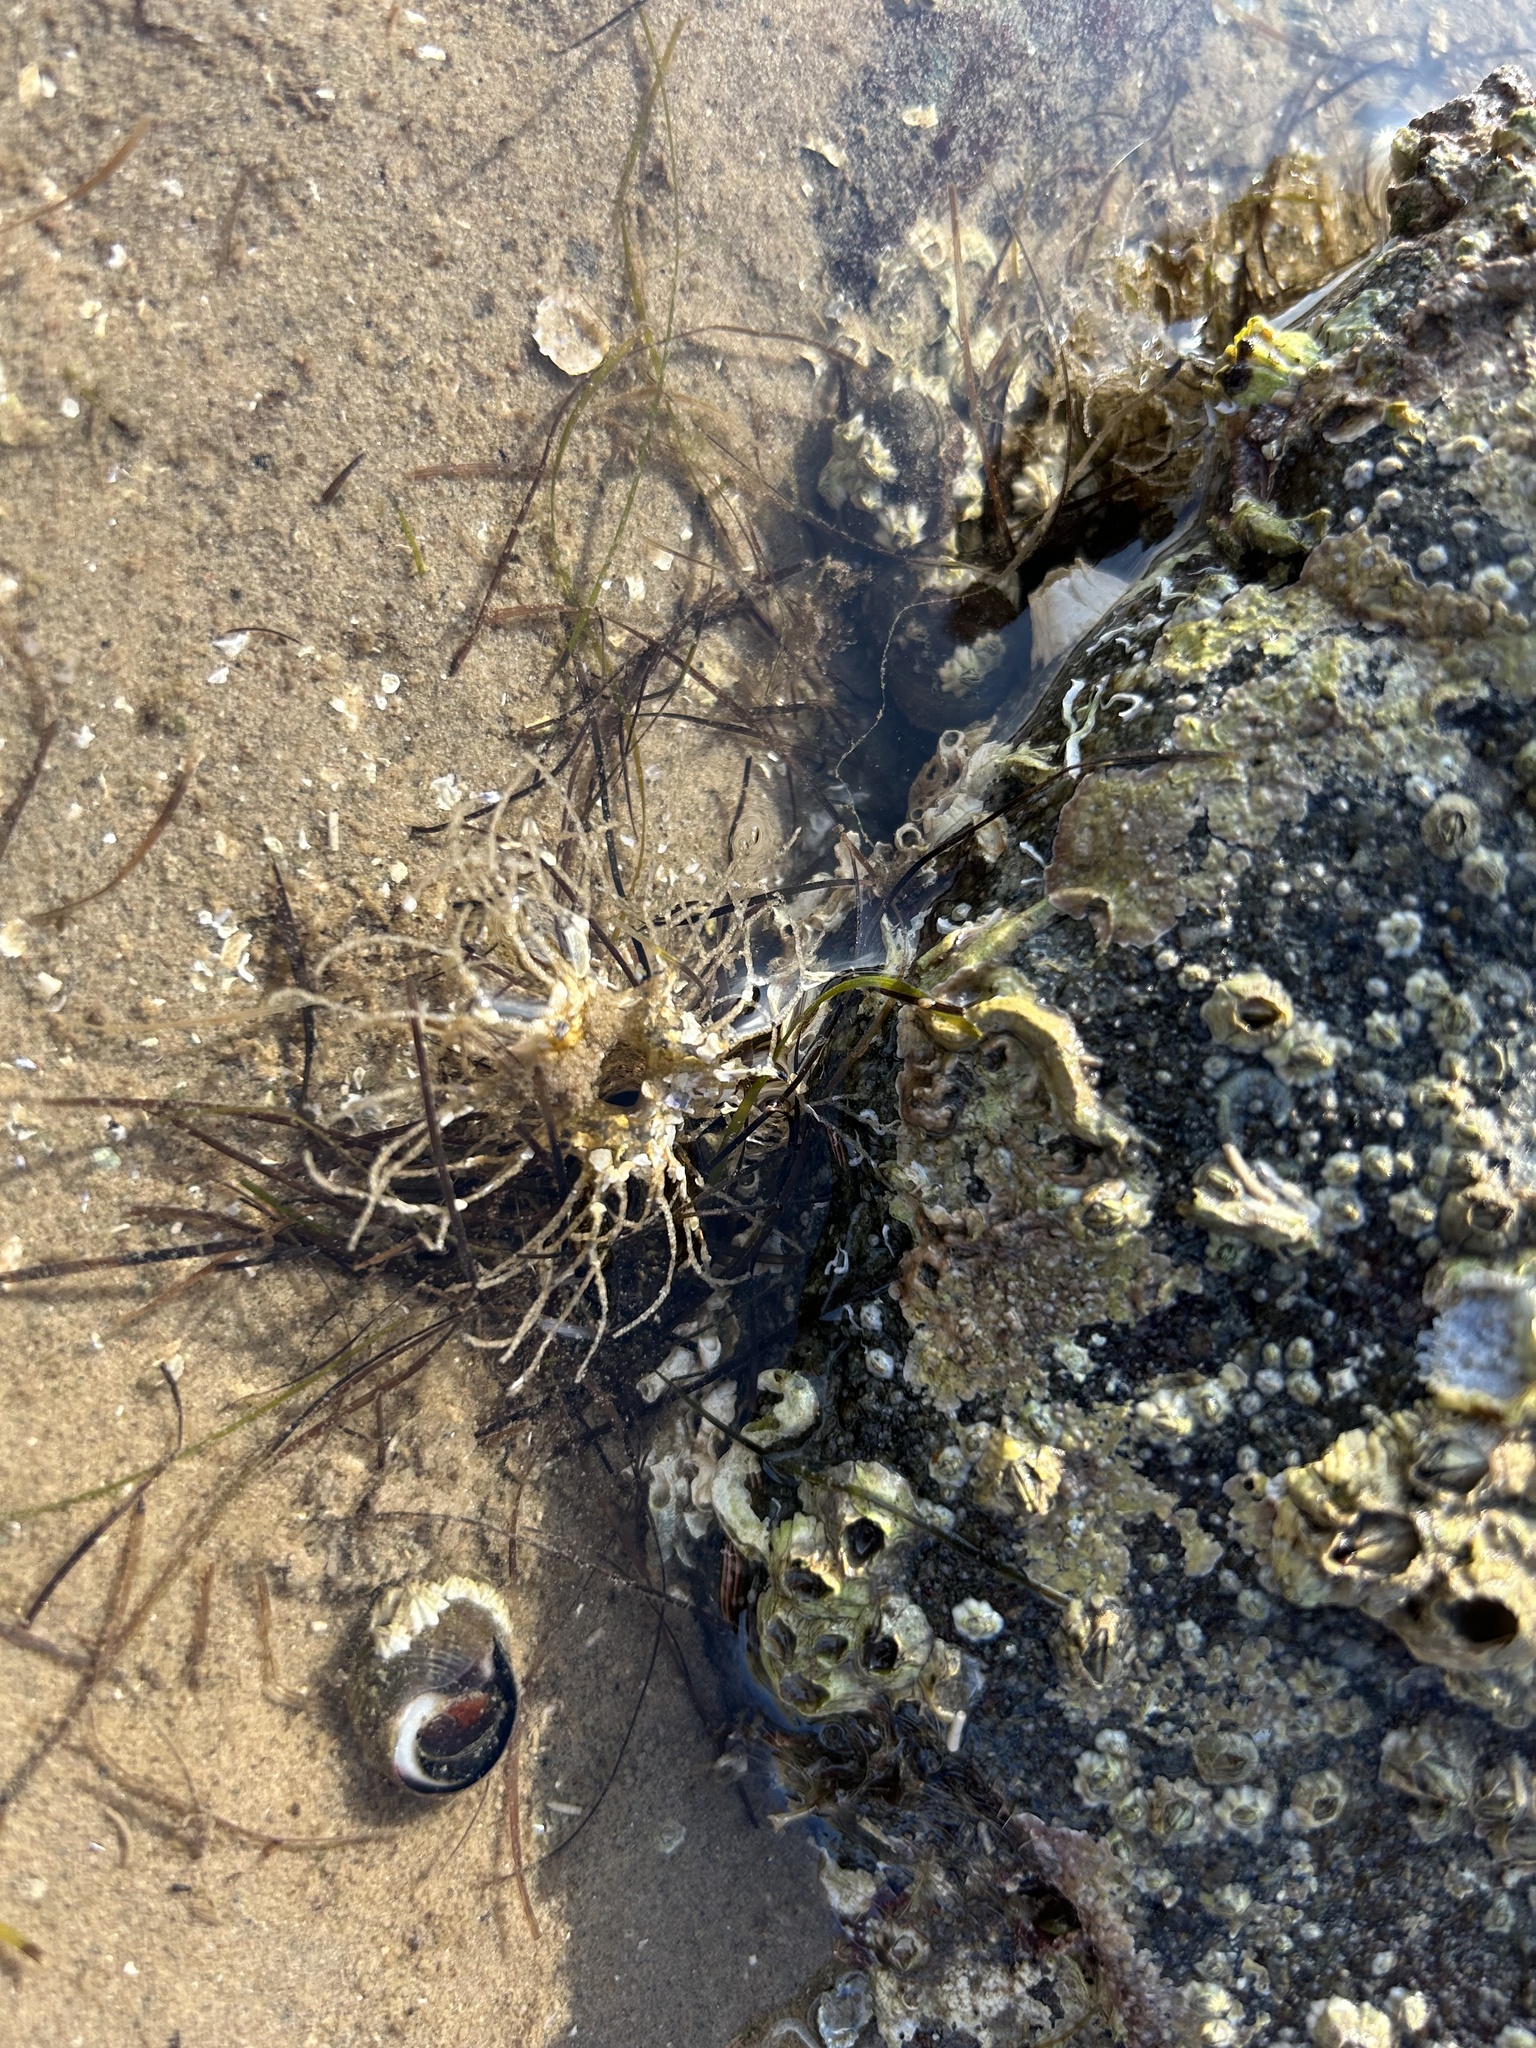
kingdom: Animalia
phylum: Annelida
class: Polychaeta
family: Terebellidae
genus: Lanice
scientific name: Lanice conchilega
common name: Sand mason
